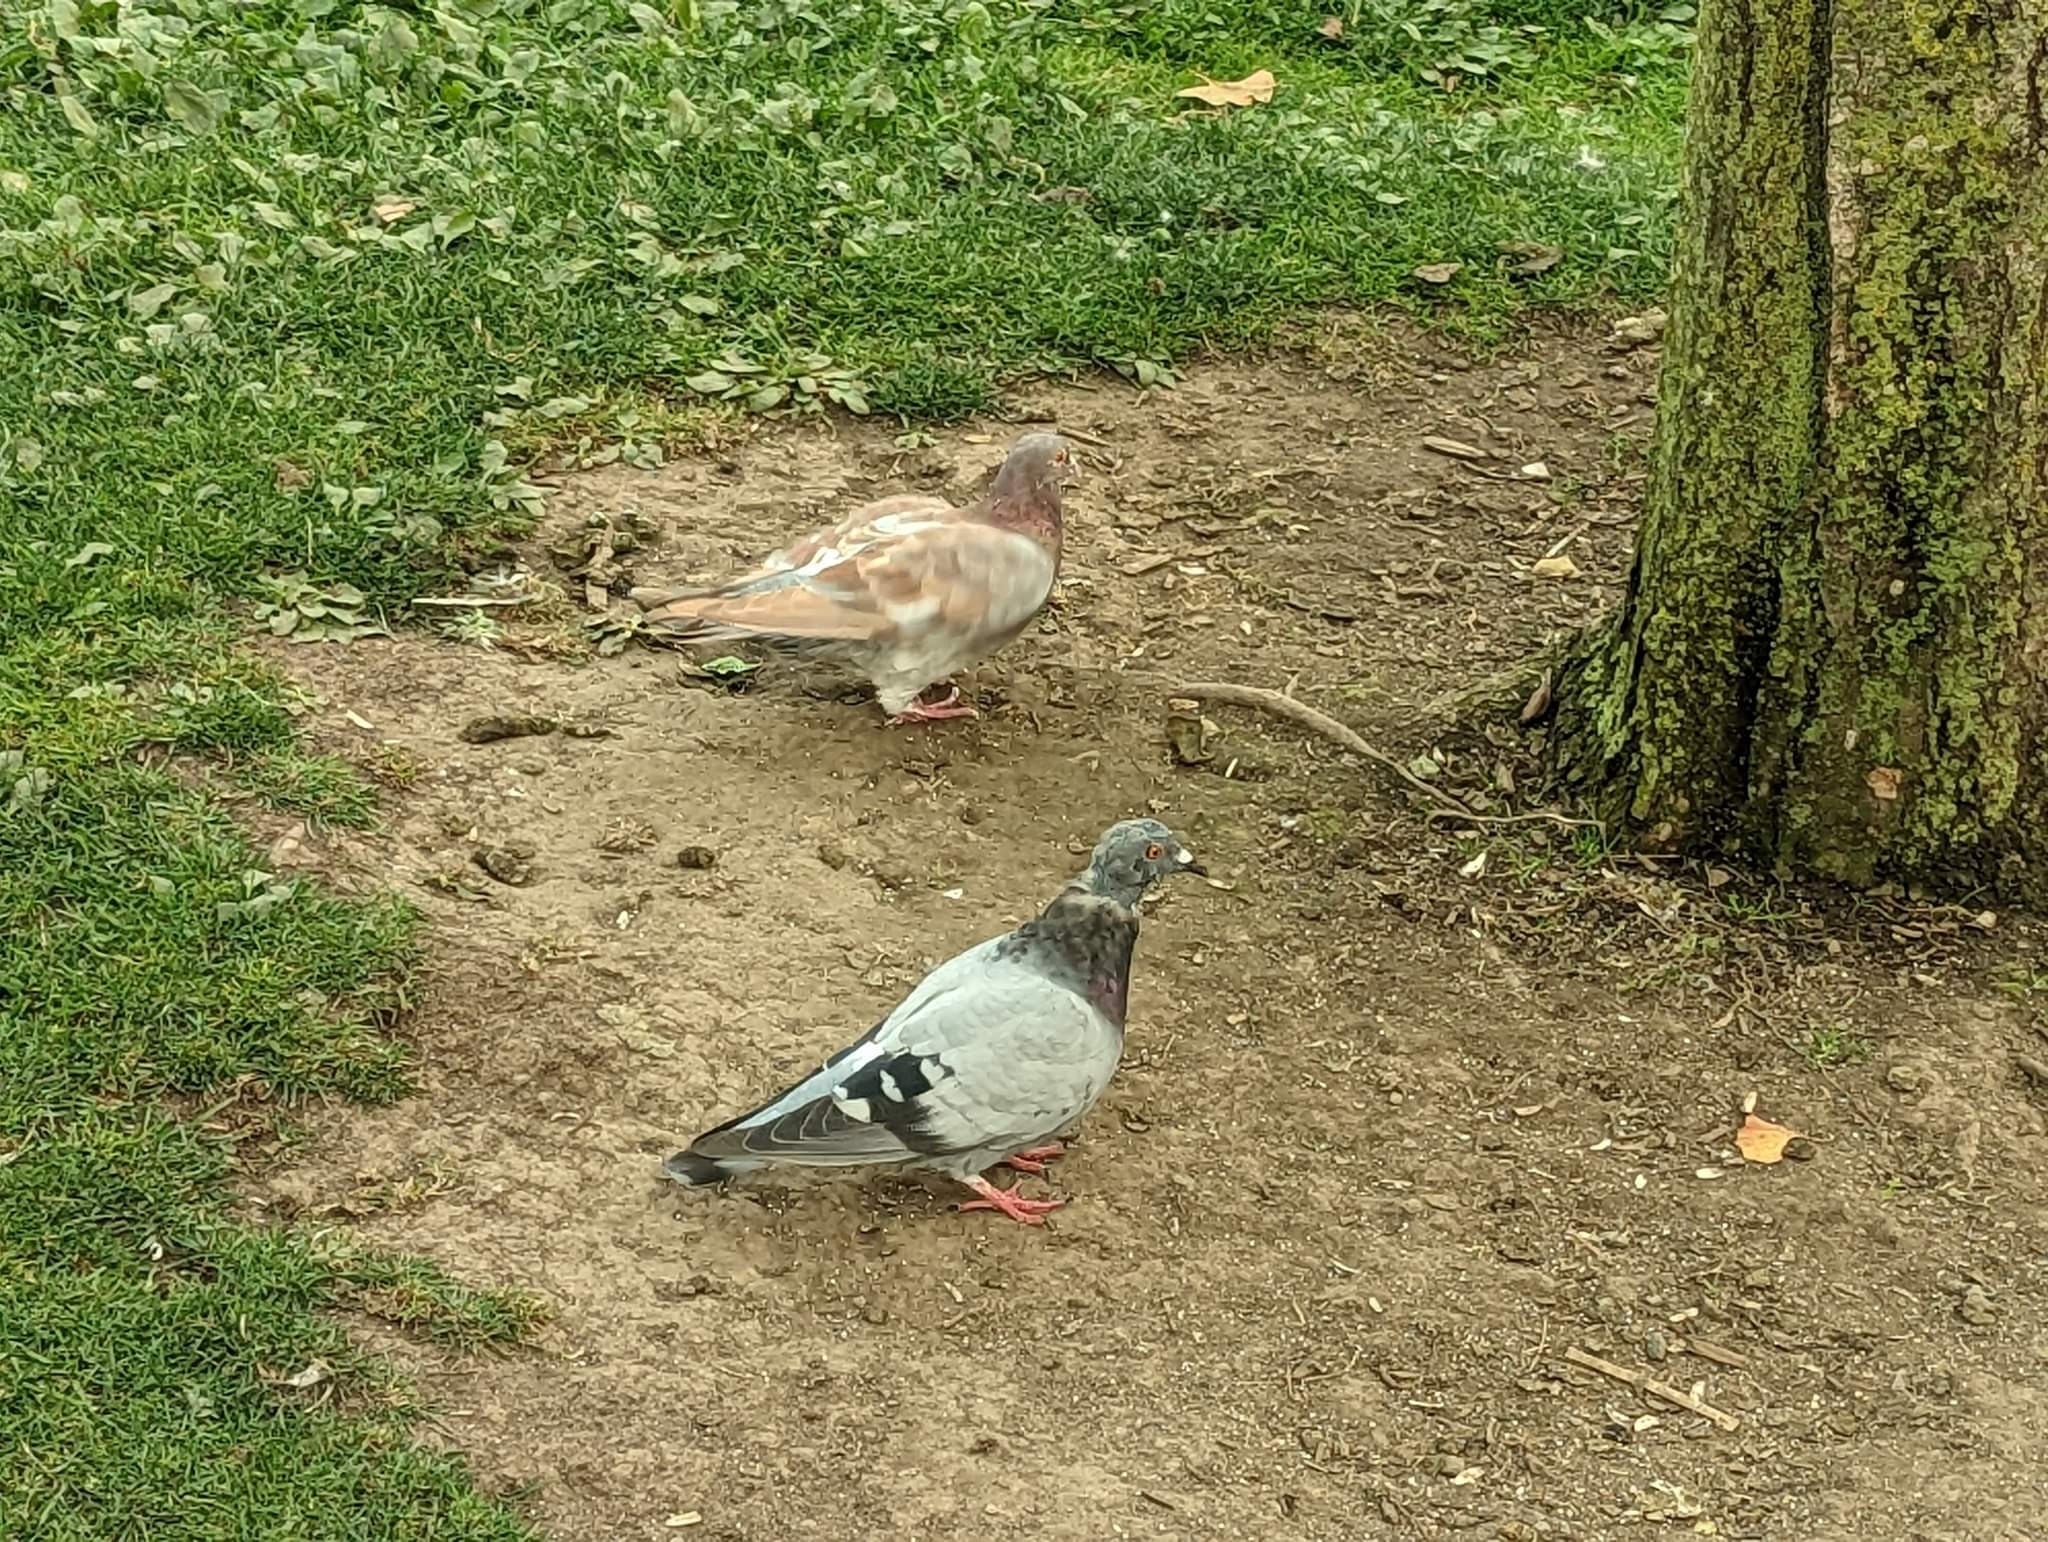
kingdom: Animalia
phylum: Chordata
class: Aves
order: Columbiformes
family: Columbidae
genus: Columba
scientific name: Columba livia
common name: Rock pigeon
